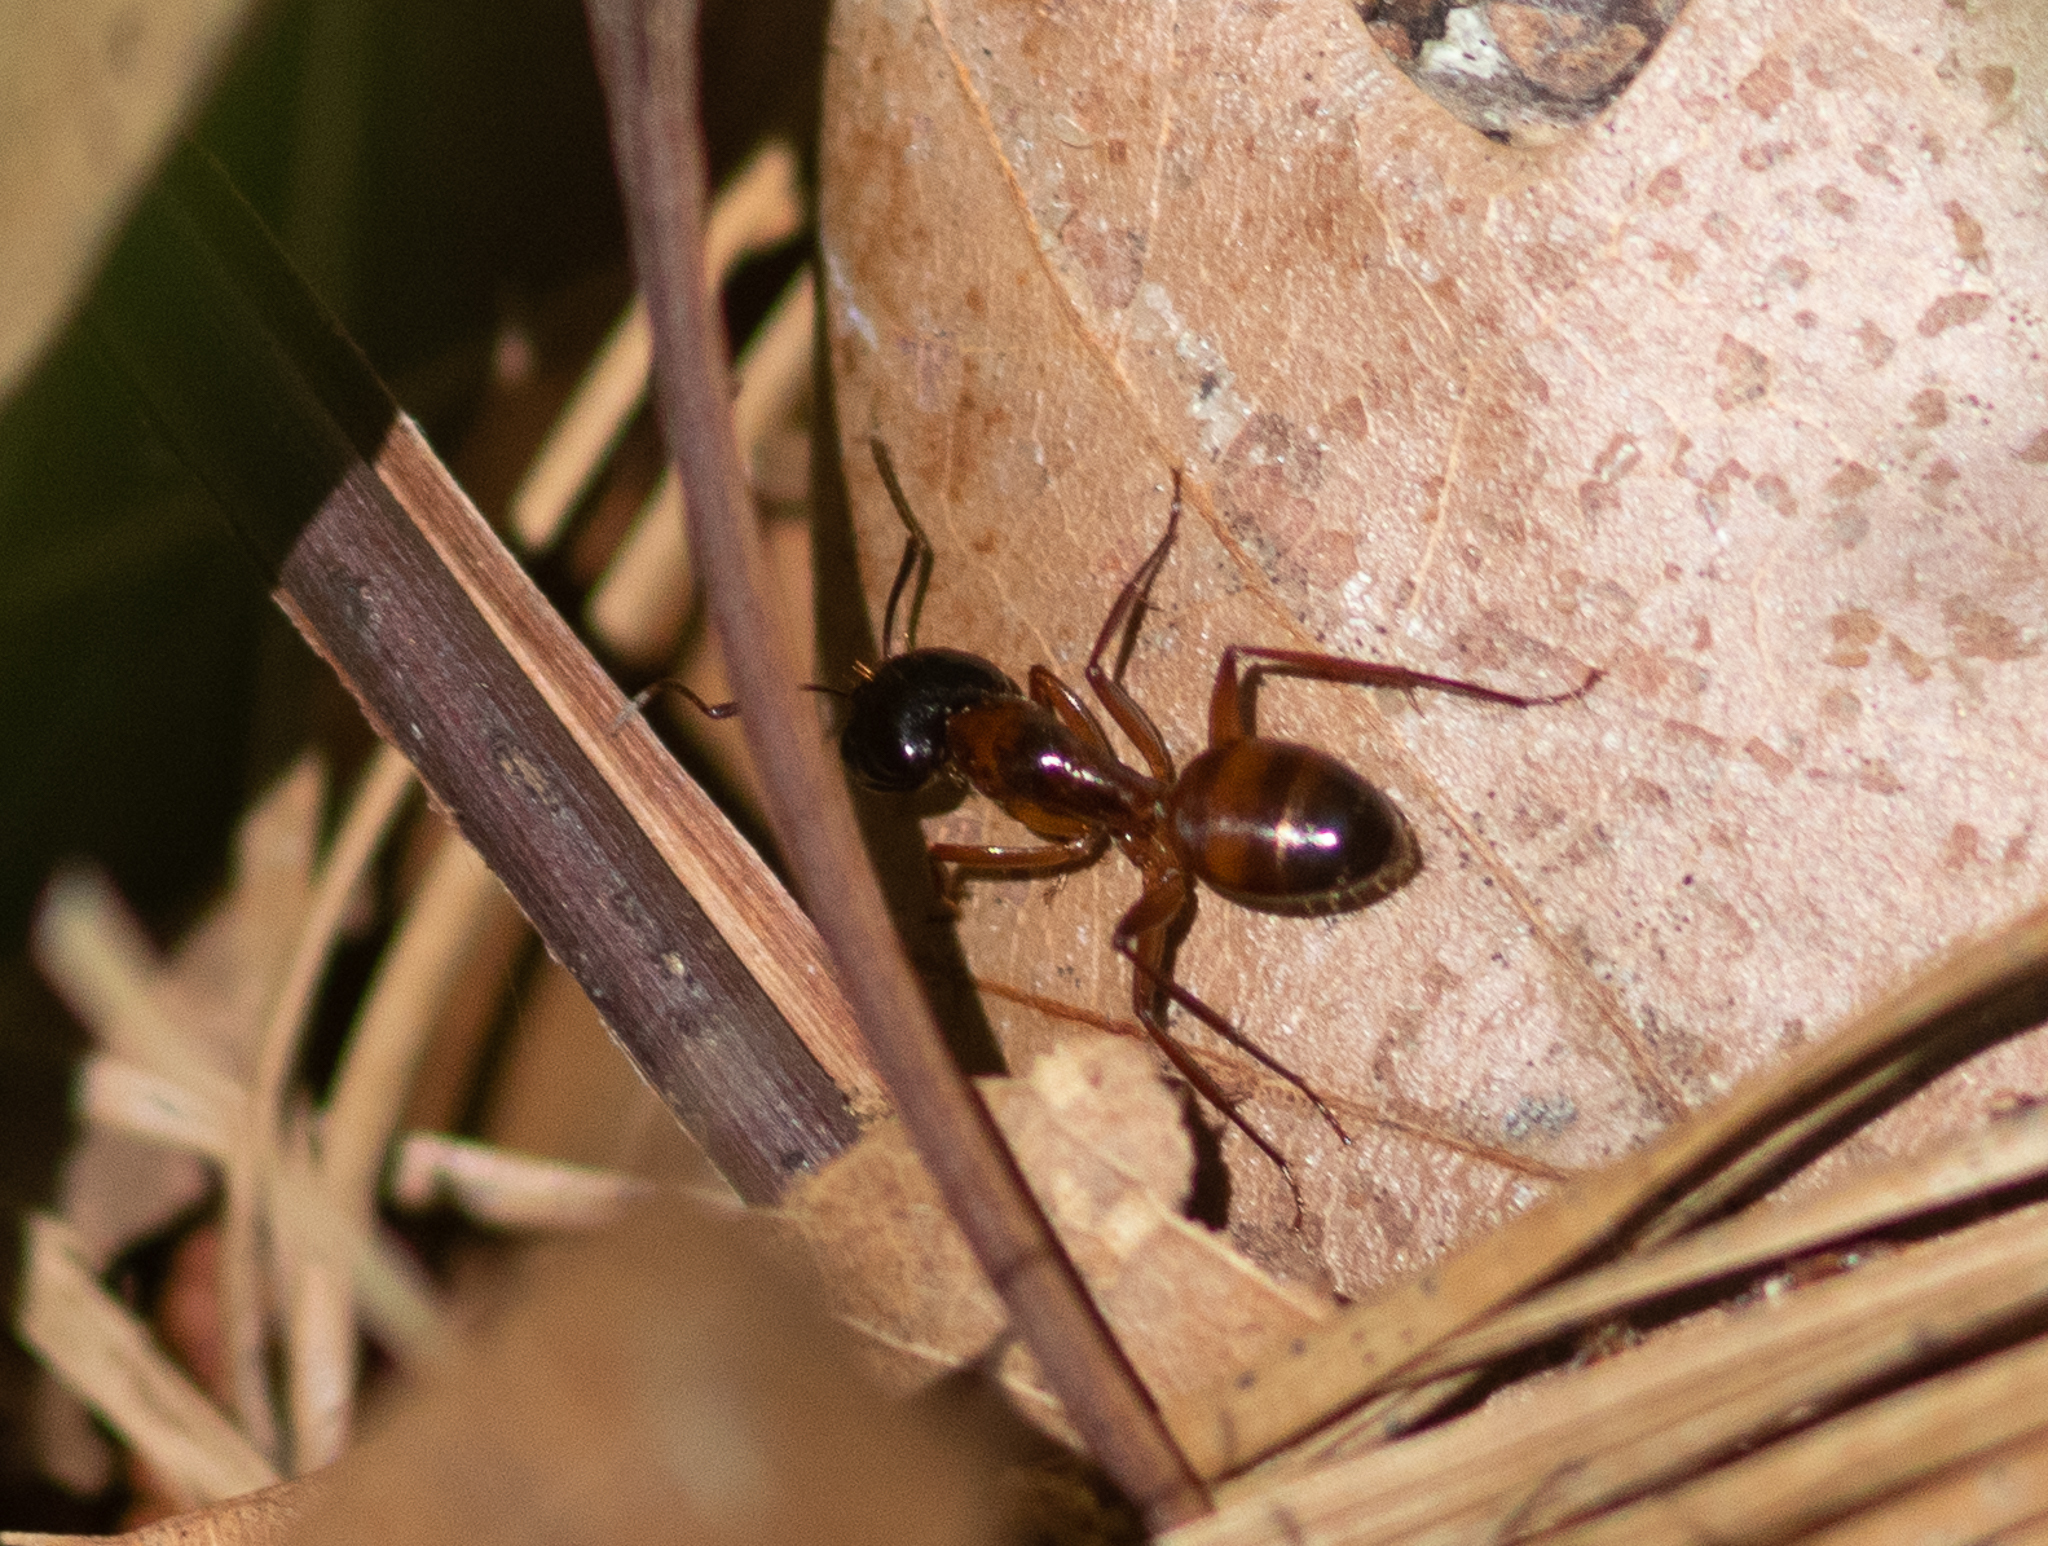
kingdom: Animalia
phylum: Arthropoda
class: Insecta
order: Hymenoptera
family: Formicidae
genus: Camponotus
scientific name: Camponotus americanus
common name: American carpenter ant
